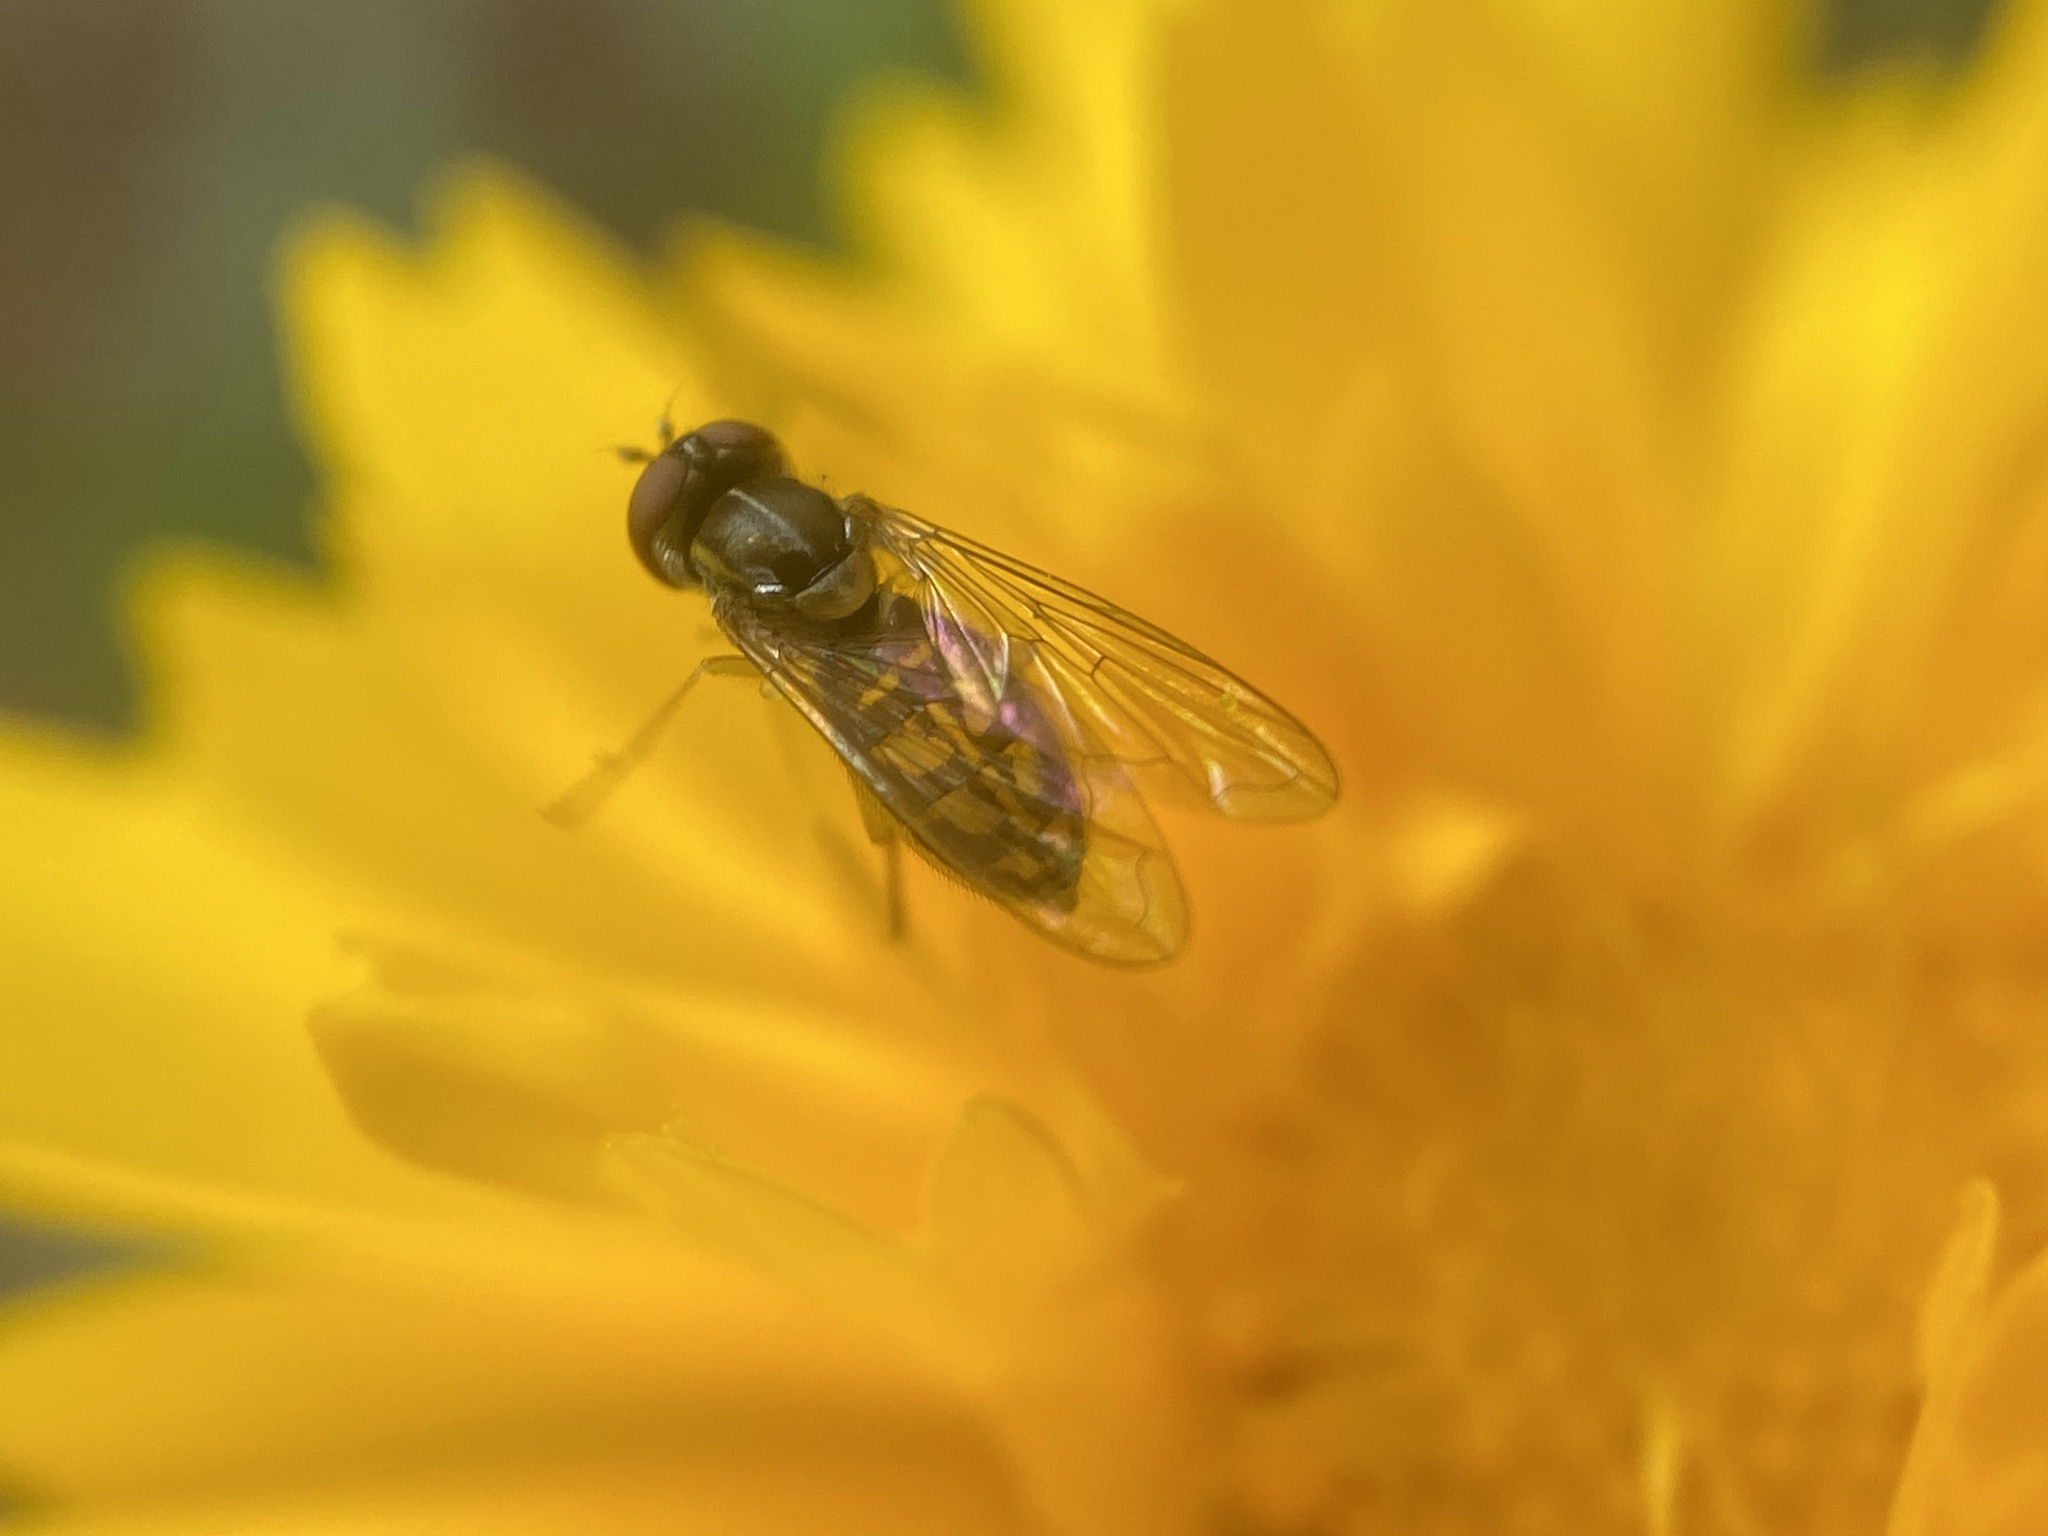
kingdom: Animalia
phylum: Arthropoda
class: Insecta
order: Diptera
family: Syrphidae
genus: Toxomerus
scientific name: Toxomerus marginatus
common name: Syrphid fly
